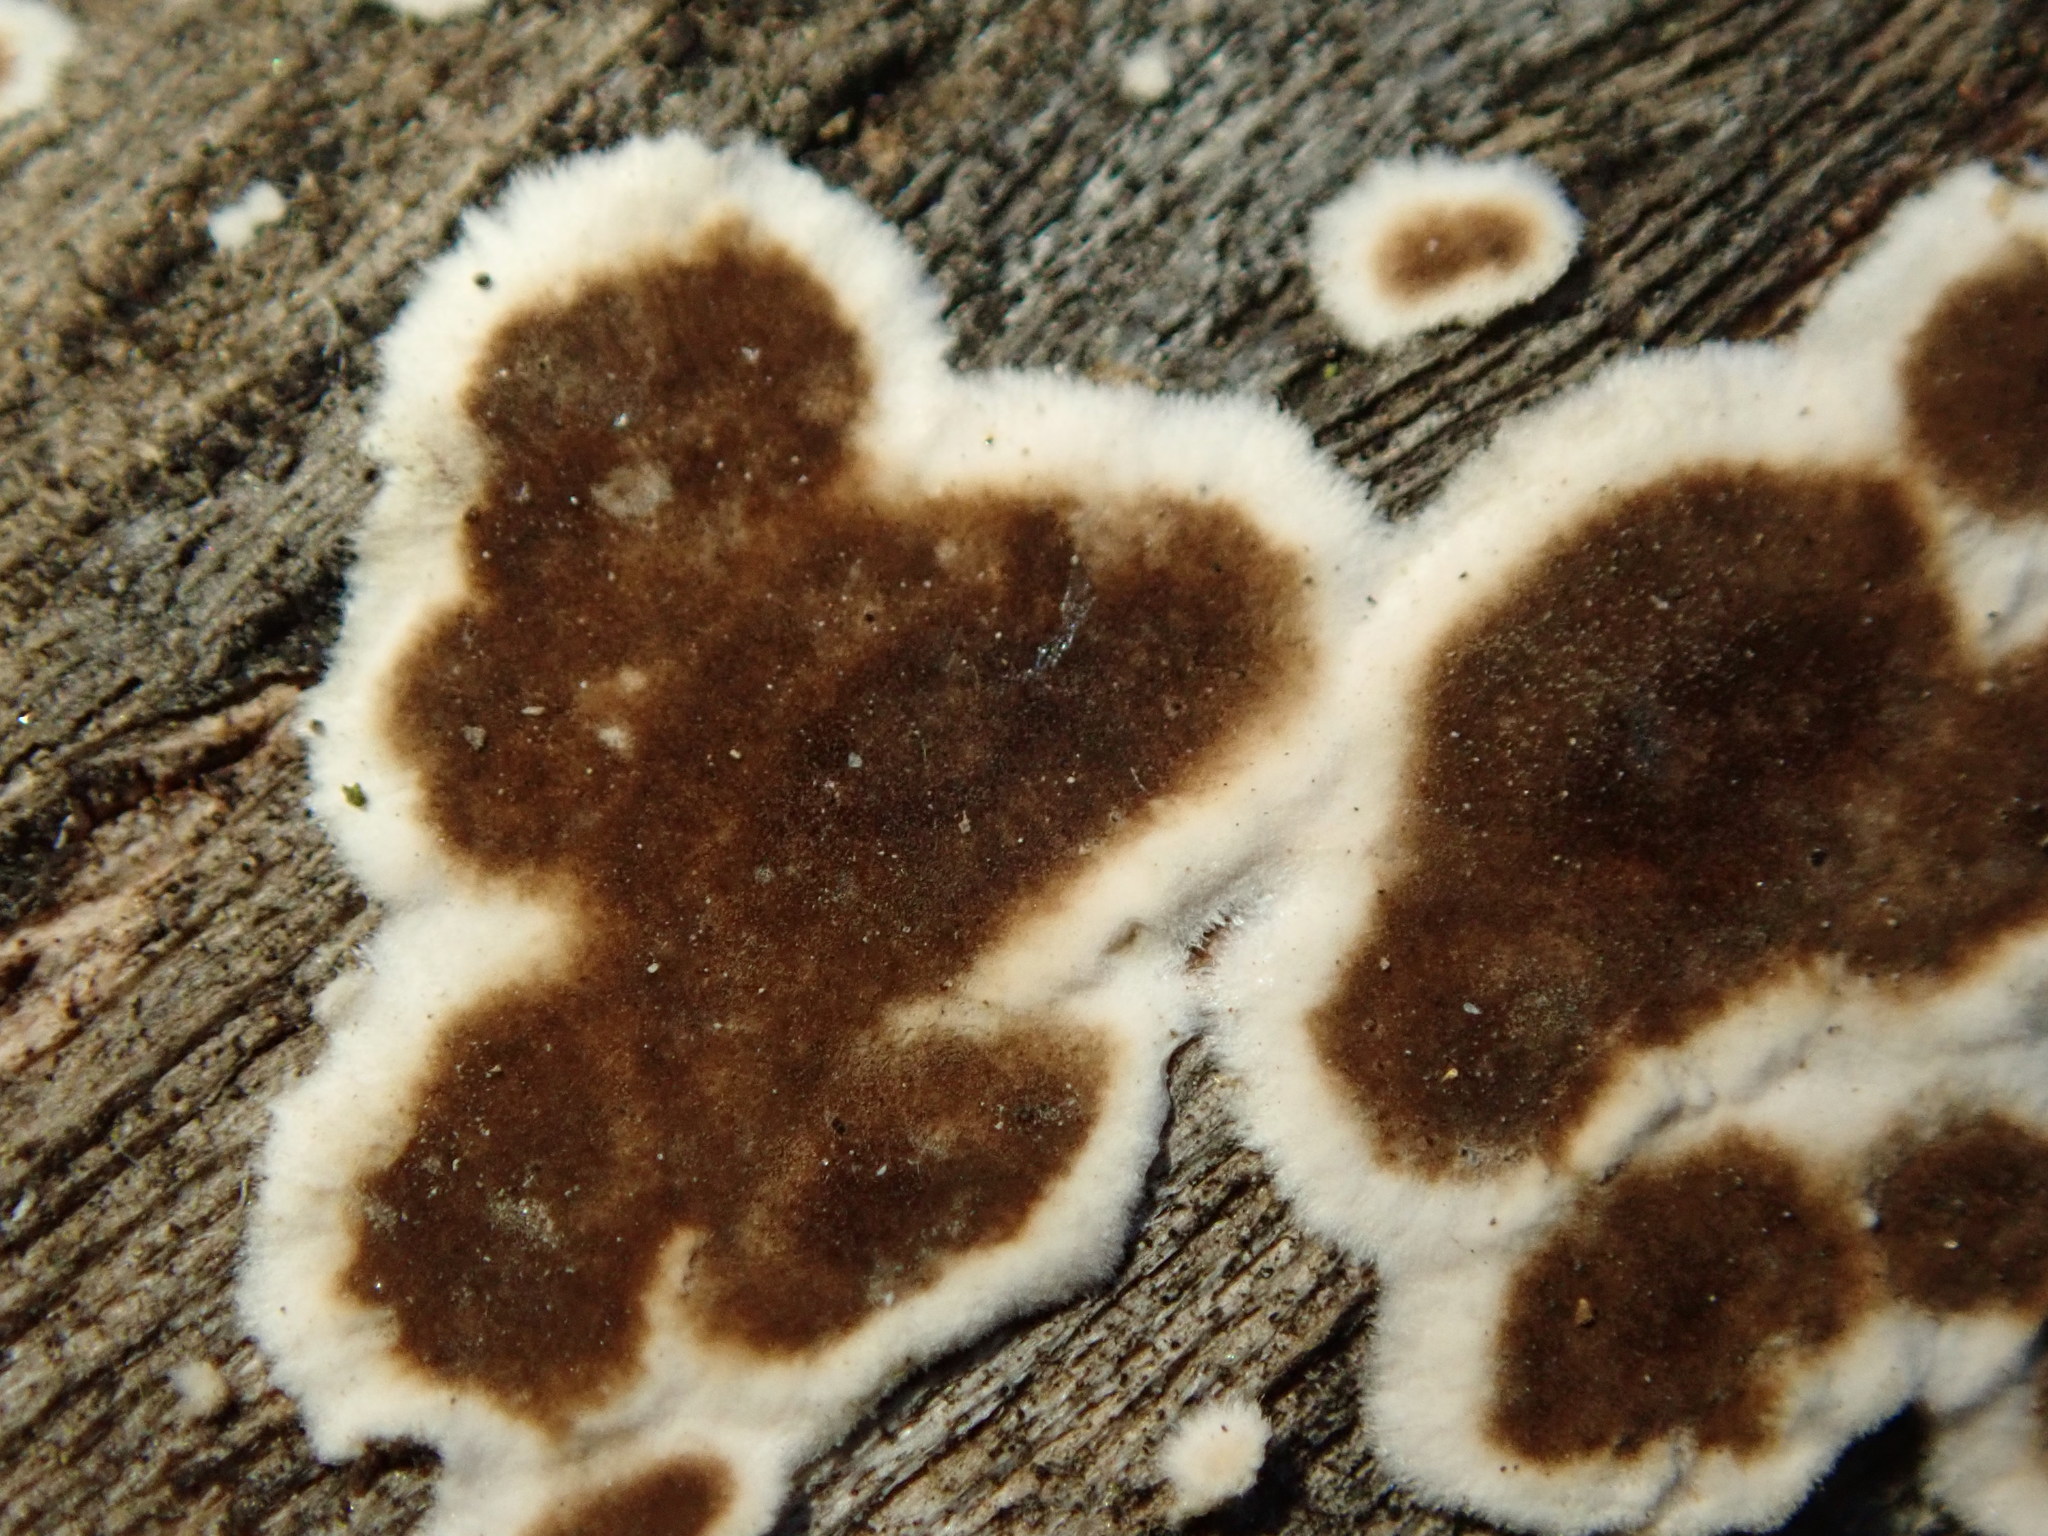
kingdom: Fungi
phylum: Basidiomycota
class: Agaricomycetes
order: Russulales
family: Peniophoraceae
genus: Peniophora
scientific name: Peniophora albobadia
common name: Giraffe spots
